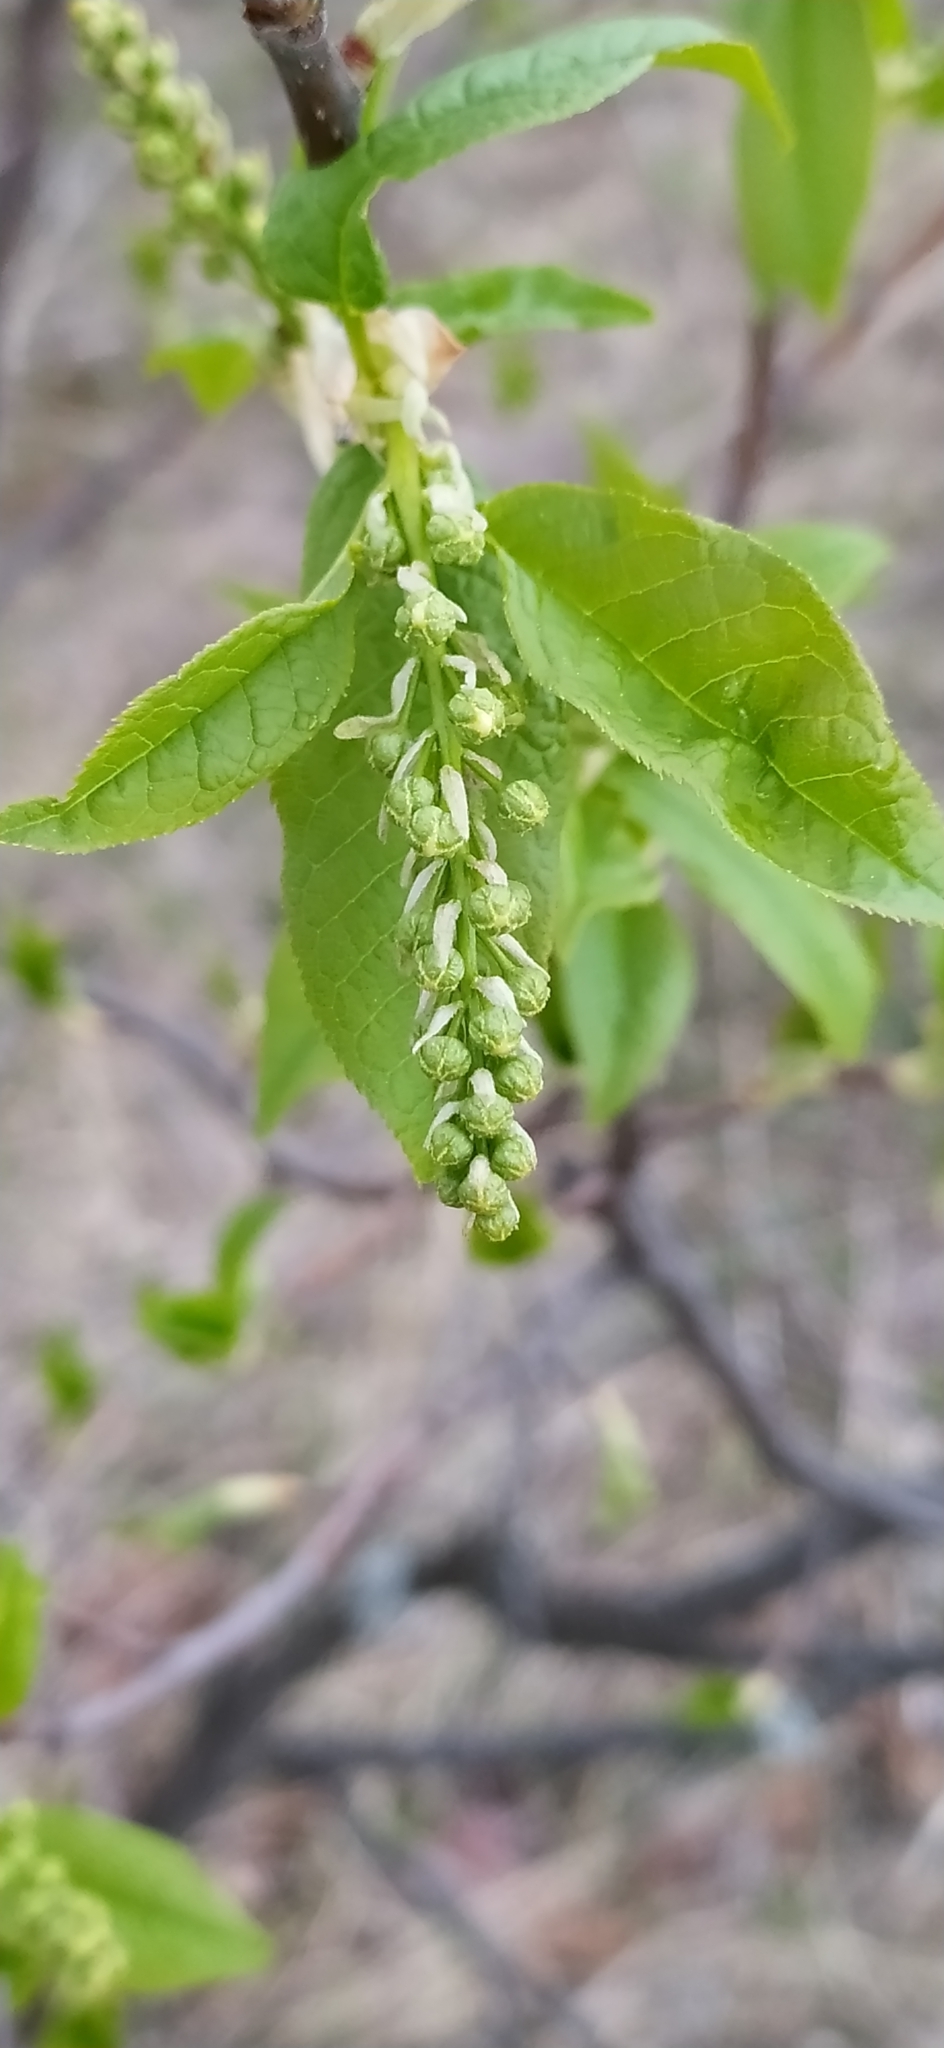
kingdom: Plantae
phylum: Tracheophyta
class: Magnoliopsida
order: Rosales
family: Rosaceae
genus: Prunus
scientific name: Prunus padus
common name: Bird cherry
